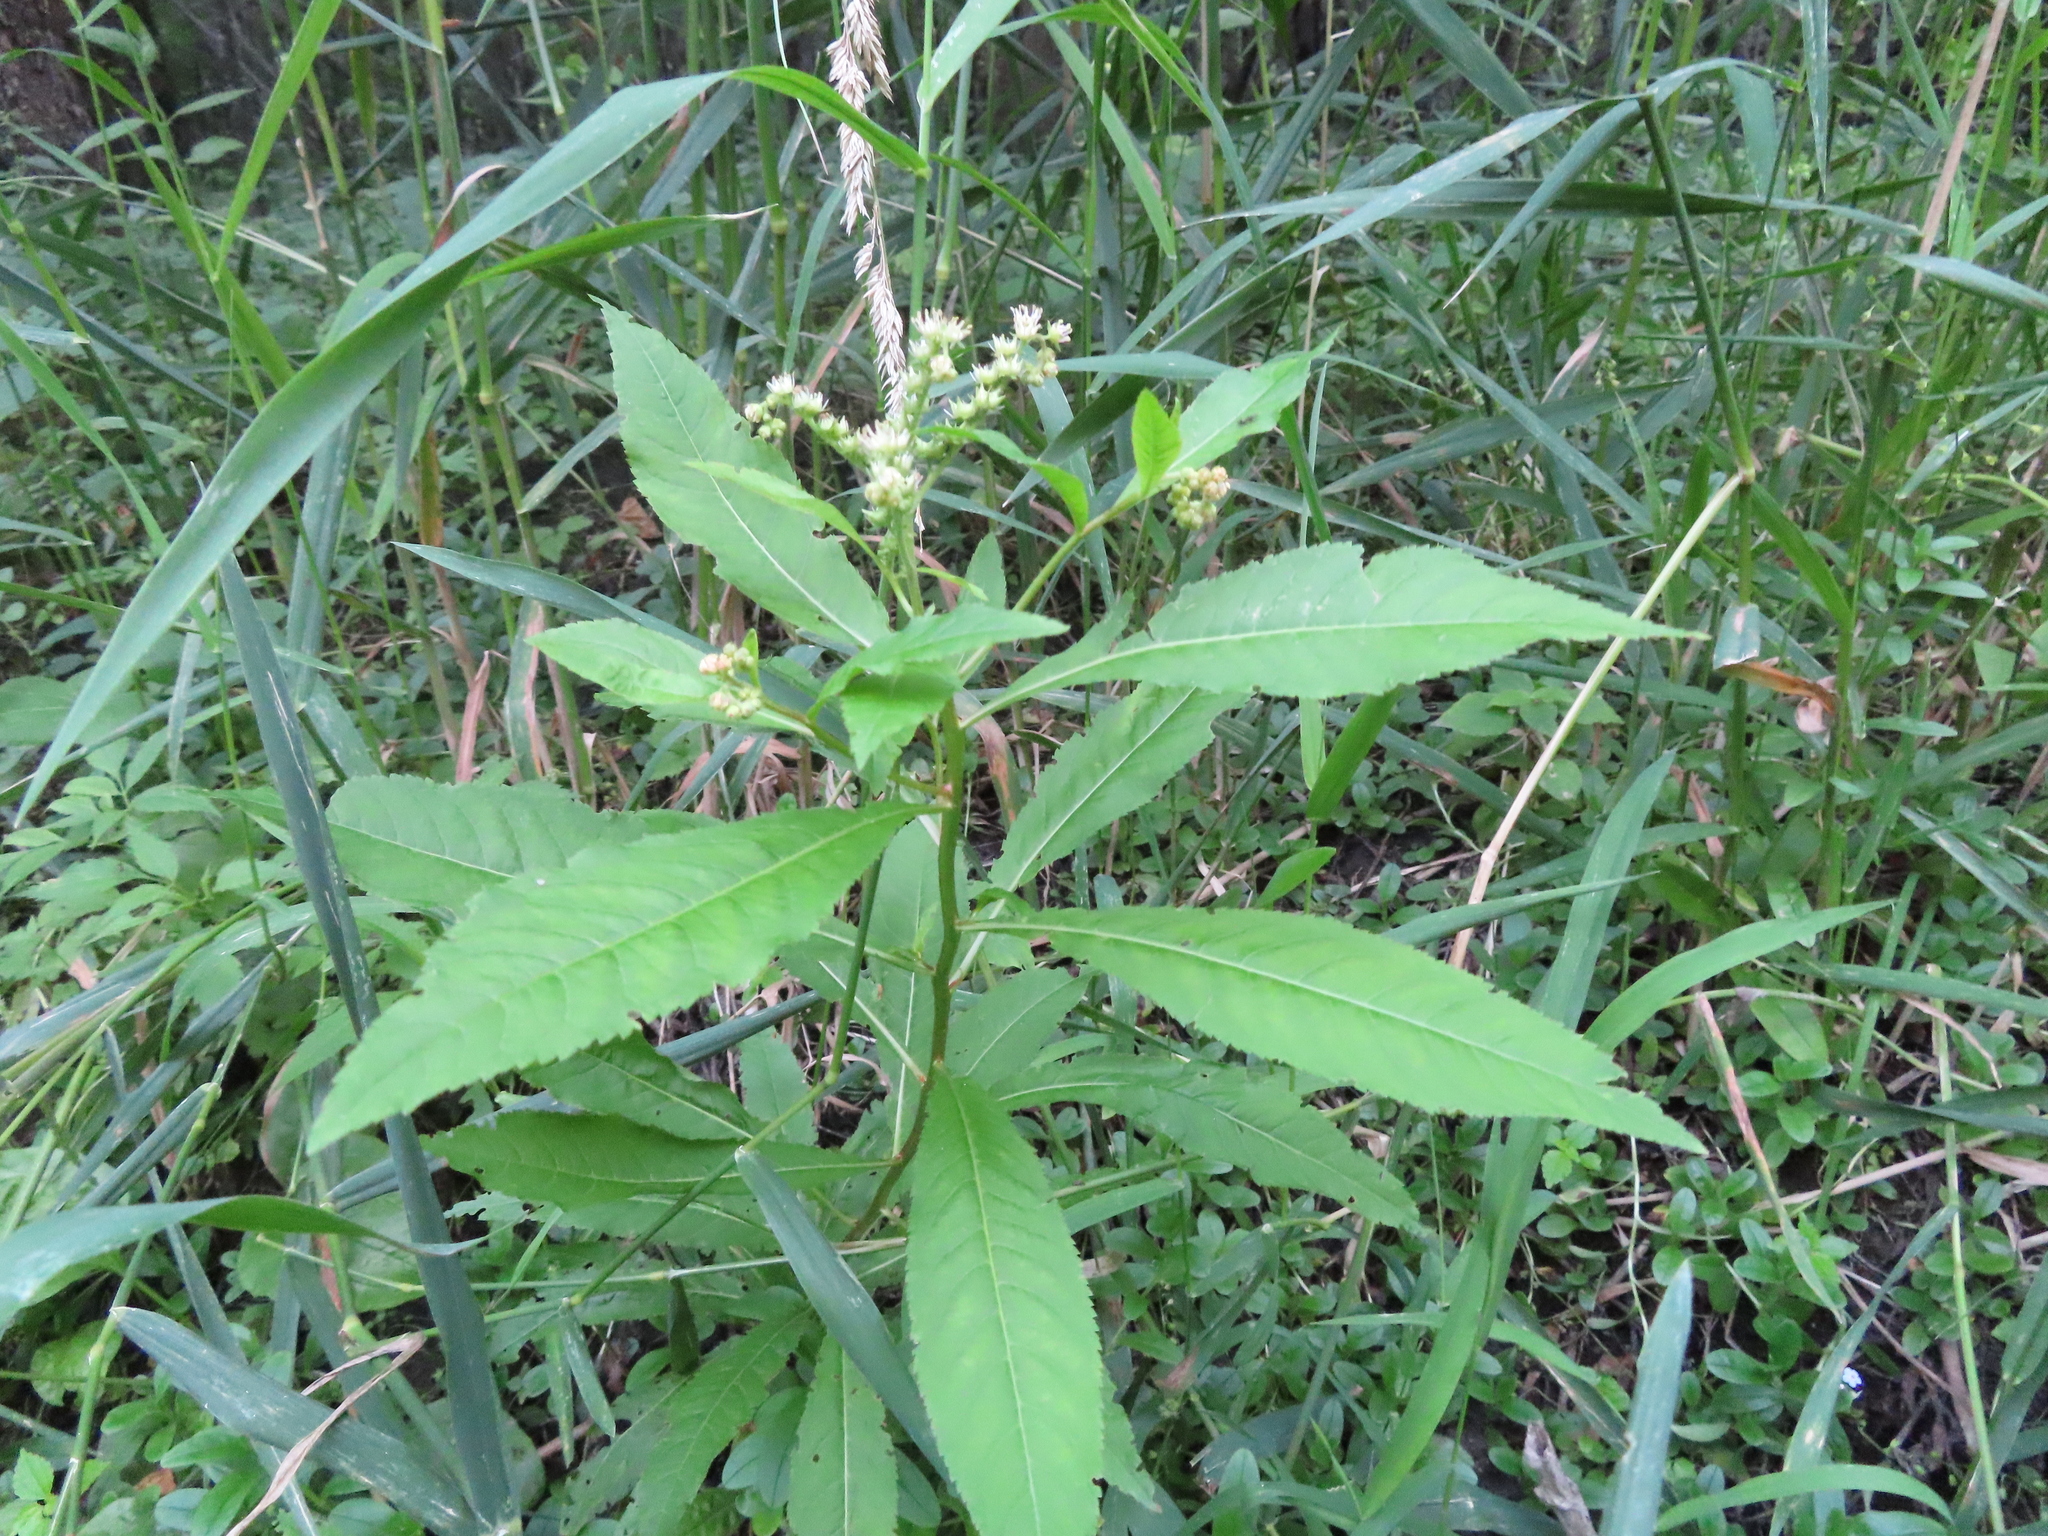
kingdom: Plantae
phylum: Tracheophyta
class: Magnoliopsida
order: Saxifragales
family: Penthoraceae
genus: Penthorum
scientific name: Penthorum sedoides
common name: Ditch stonecrop
